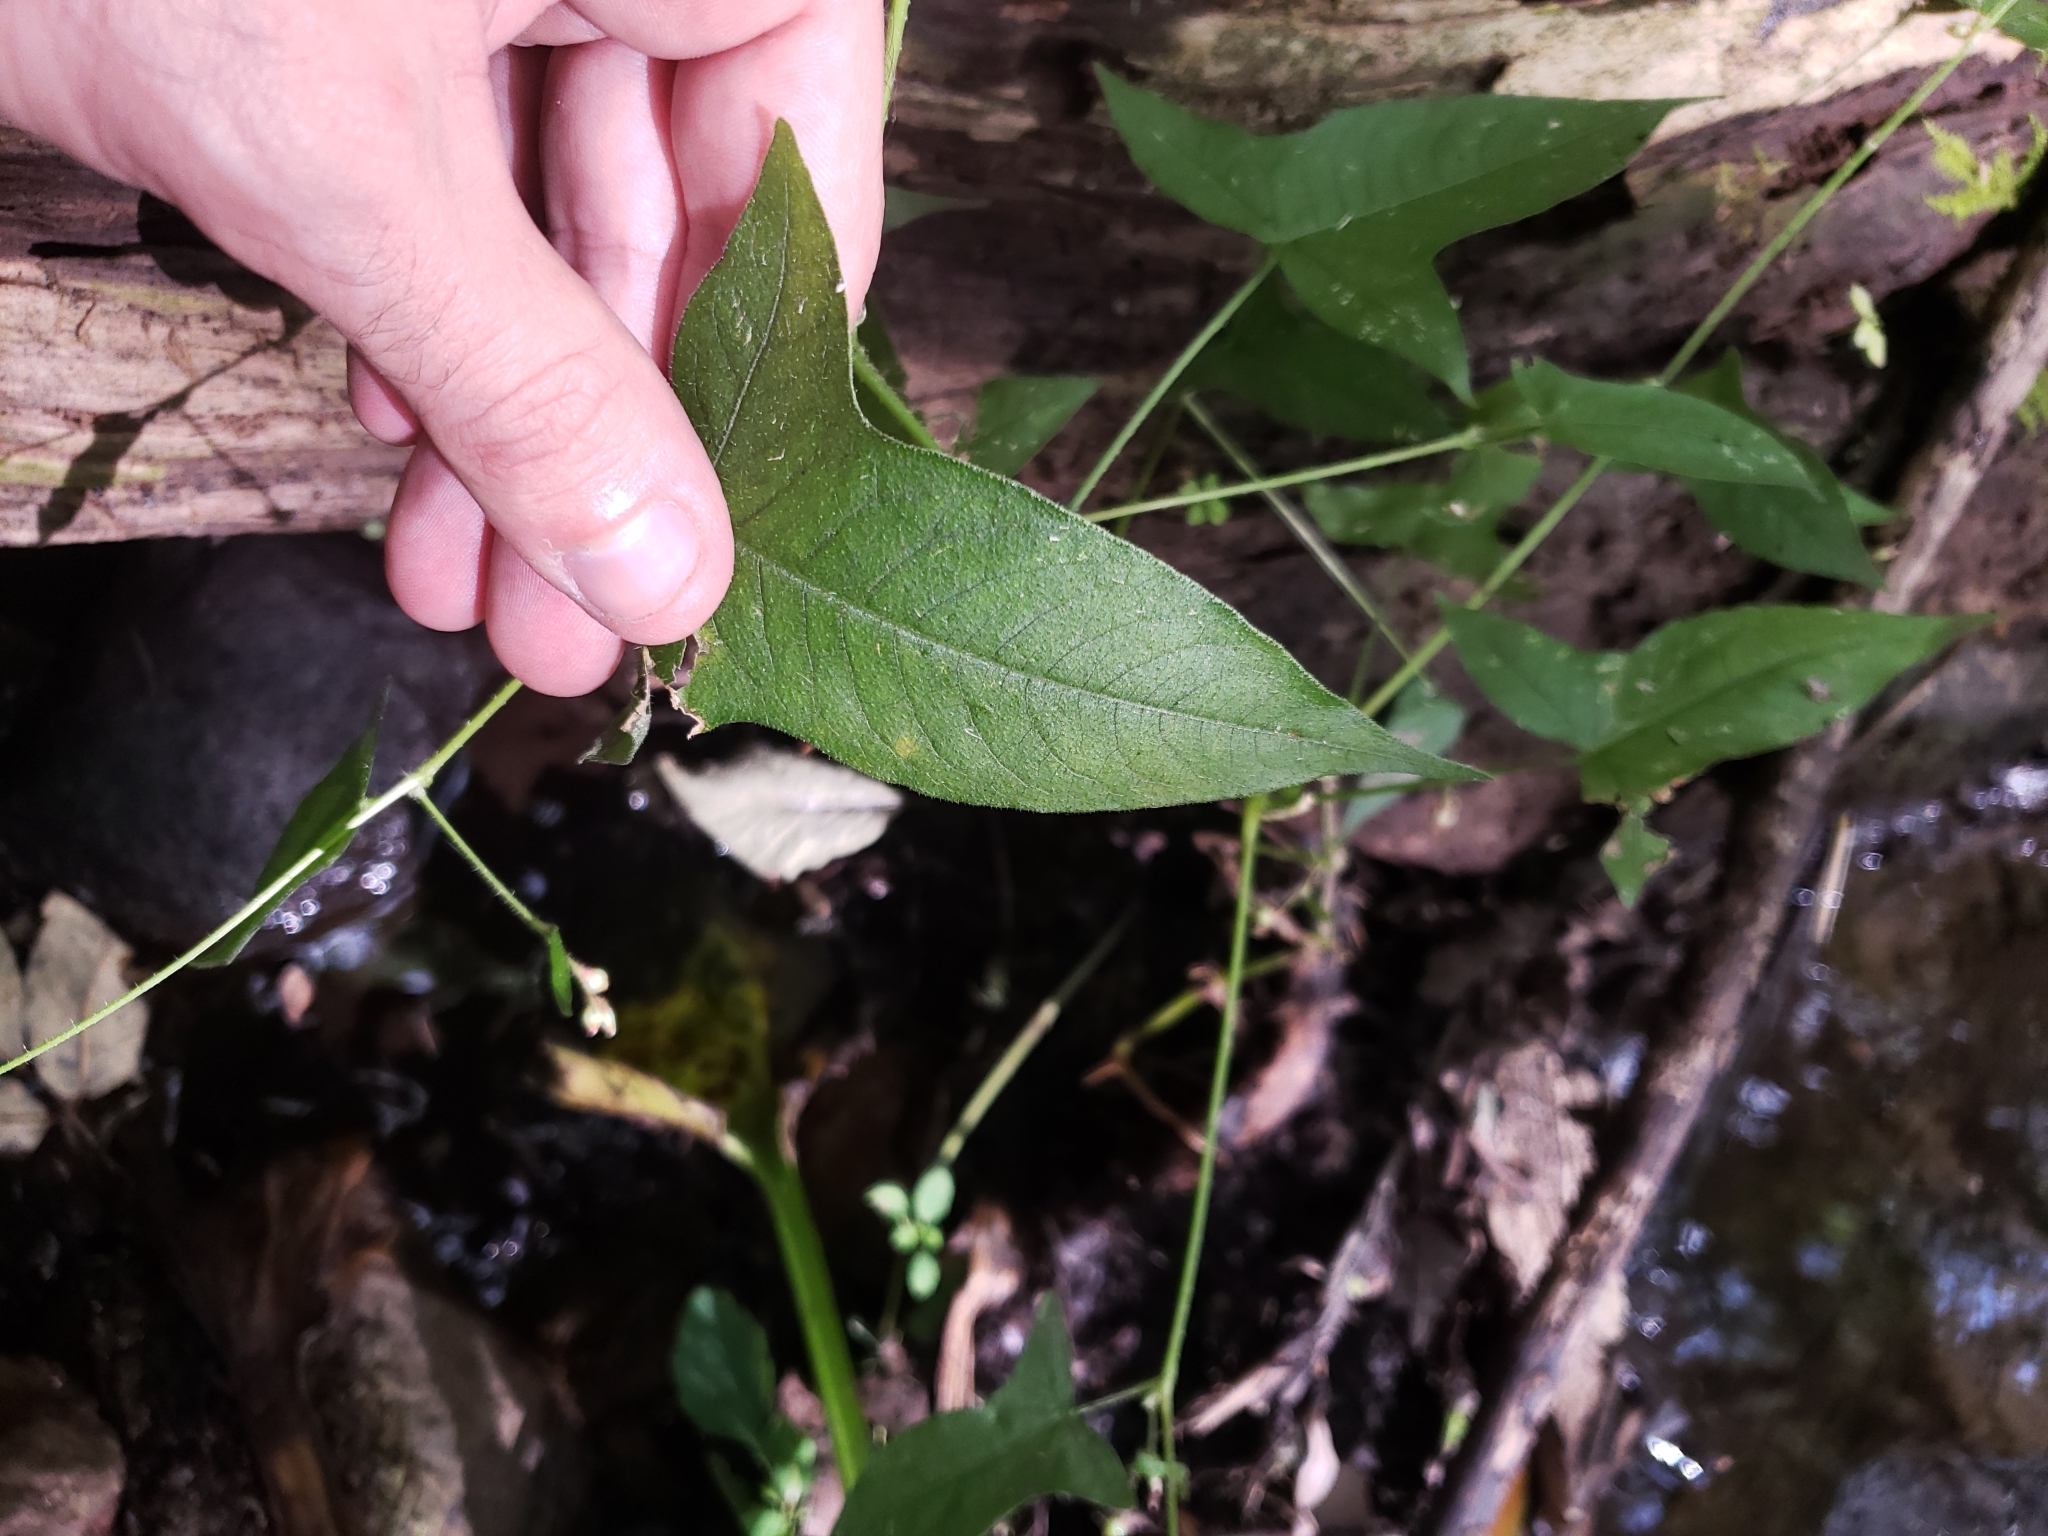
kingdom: Plantae
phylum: Tracheophyta
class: Magnoliopsida
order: Caryophyllales
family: Polygonaceae
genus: Persicaria
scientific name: Persicaria arifolia
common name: Halberd-leaved tear-thumb
